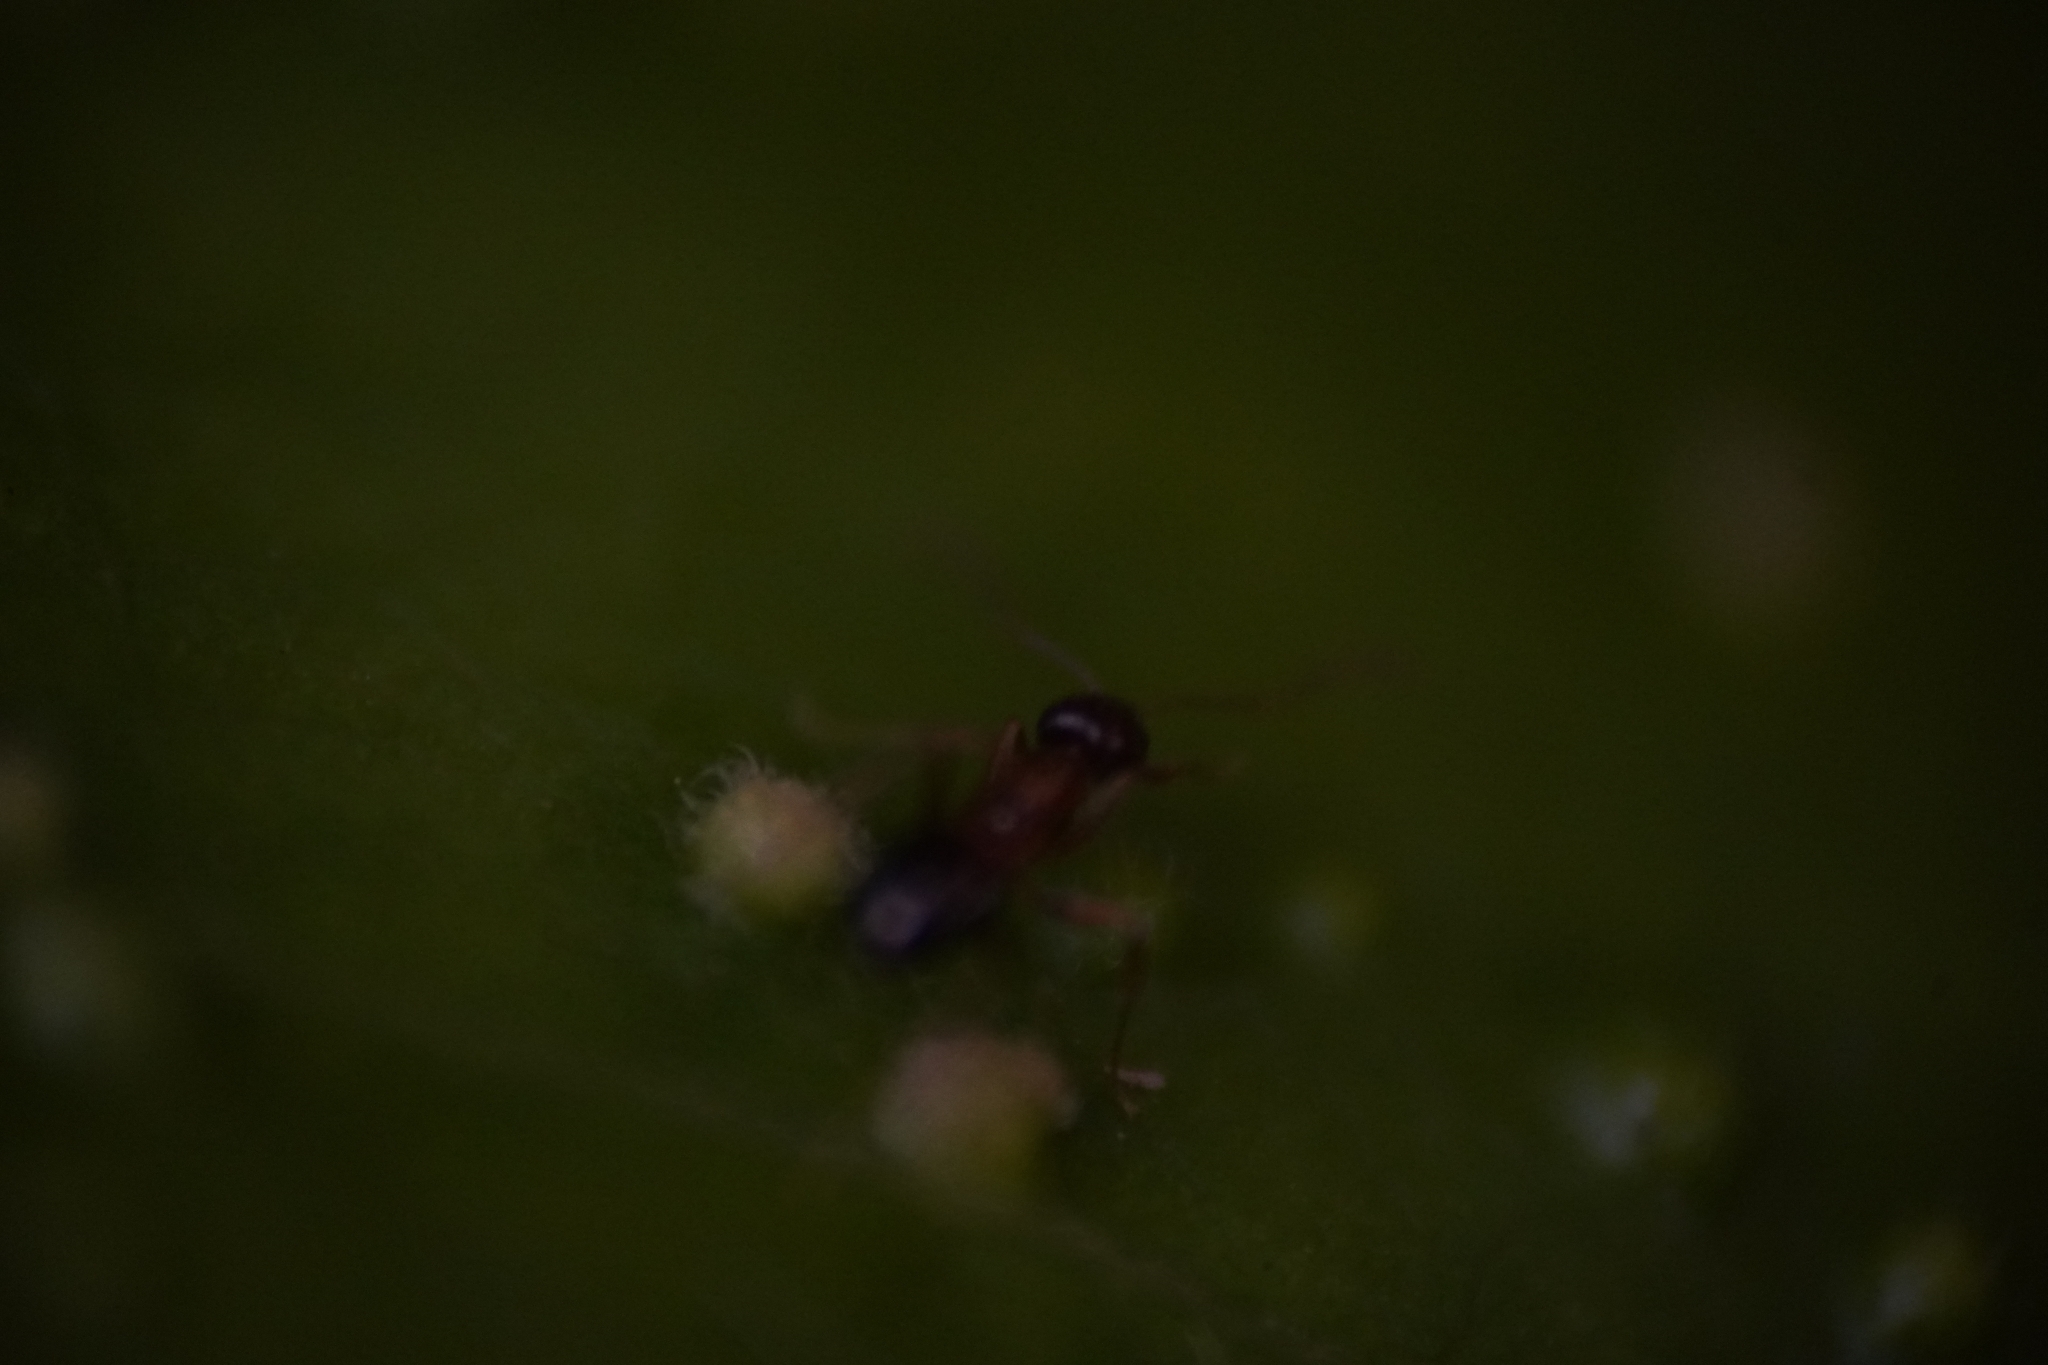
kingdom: Animalia
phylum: Arthropoda
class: Insecta
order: Hymenoptera
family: Formicidae
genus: Paratrechina
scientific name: Paratrechina flavipes
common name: Eastern asian formicine ant
